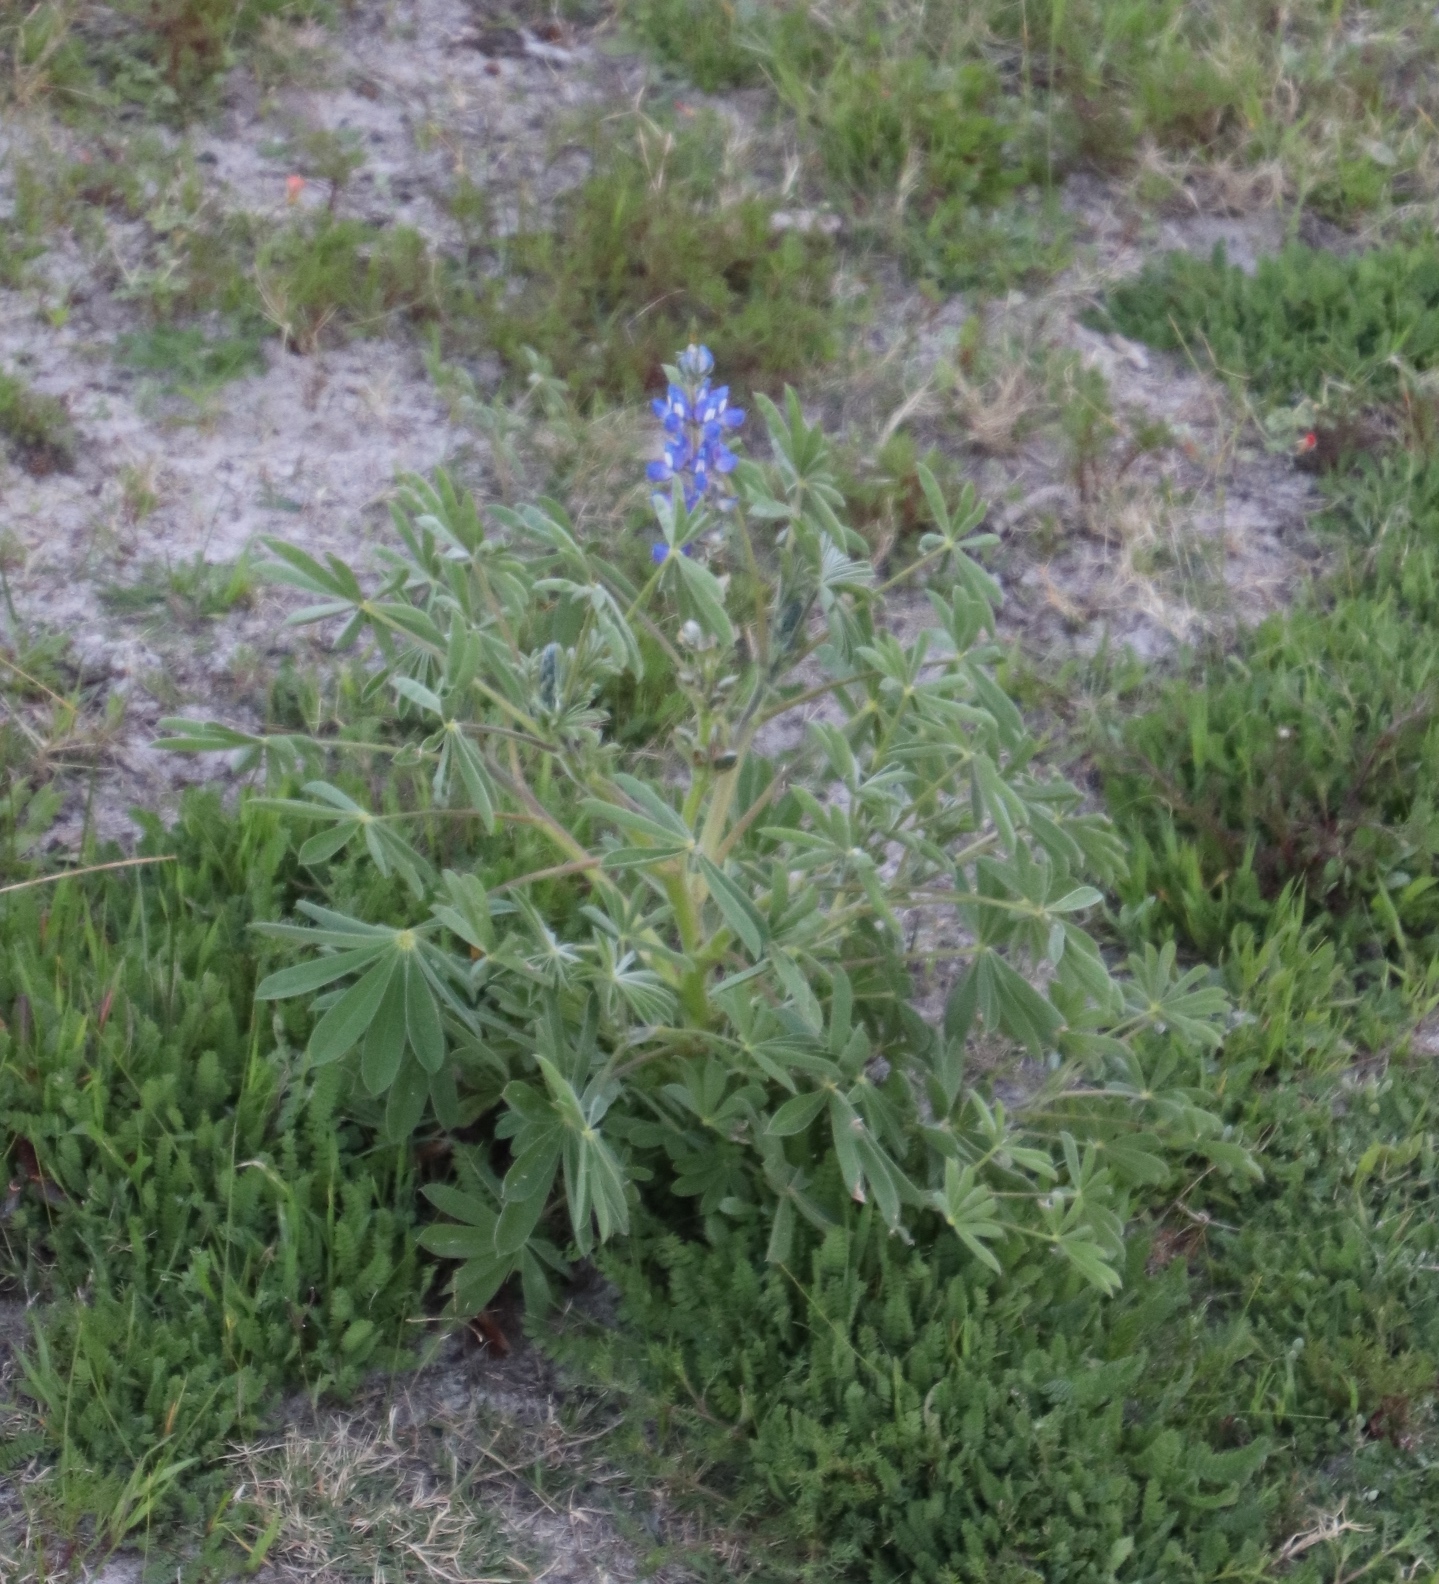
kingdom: Plantae
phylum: Tracheophyta
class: Magnoliopsida
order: Fabales
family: Fabaceae
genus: Lupinus
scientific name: Lupinus cosentinii
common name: Hairy blue lupin
